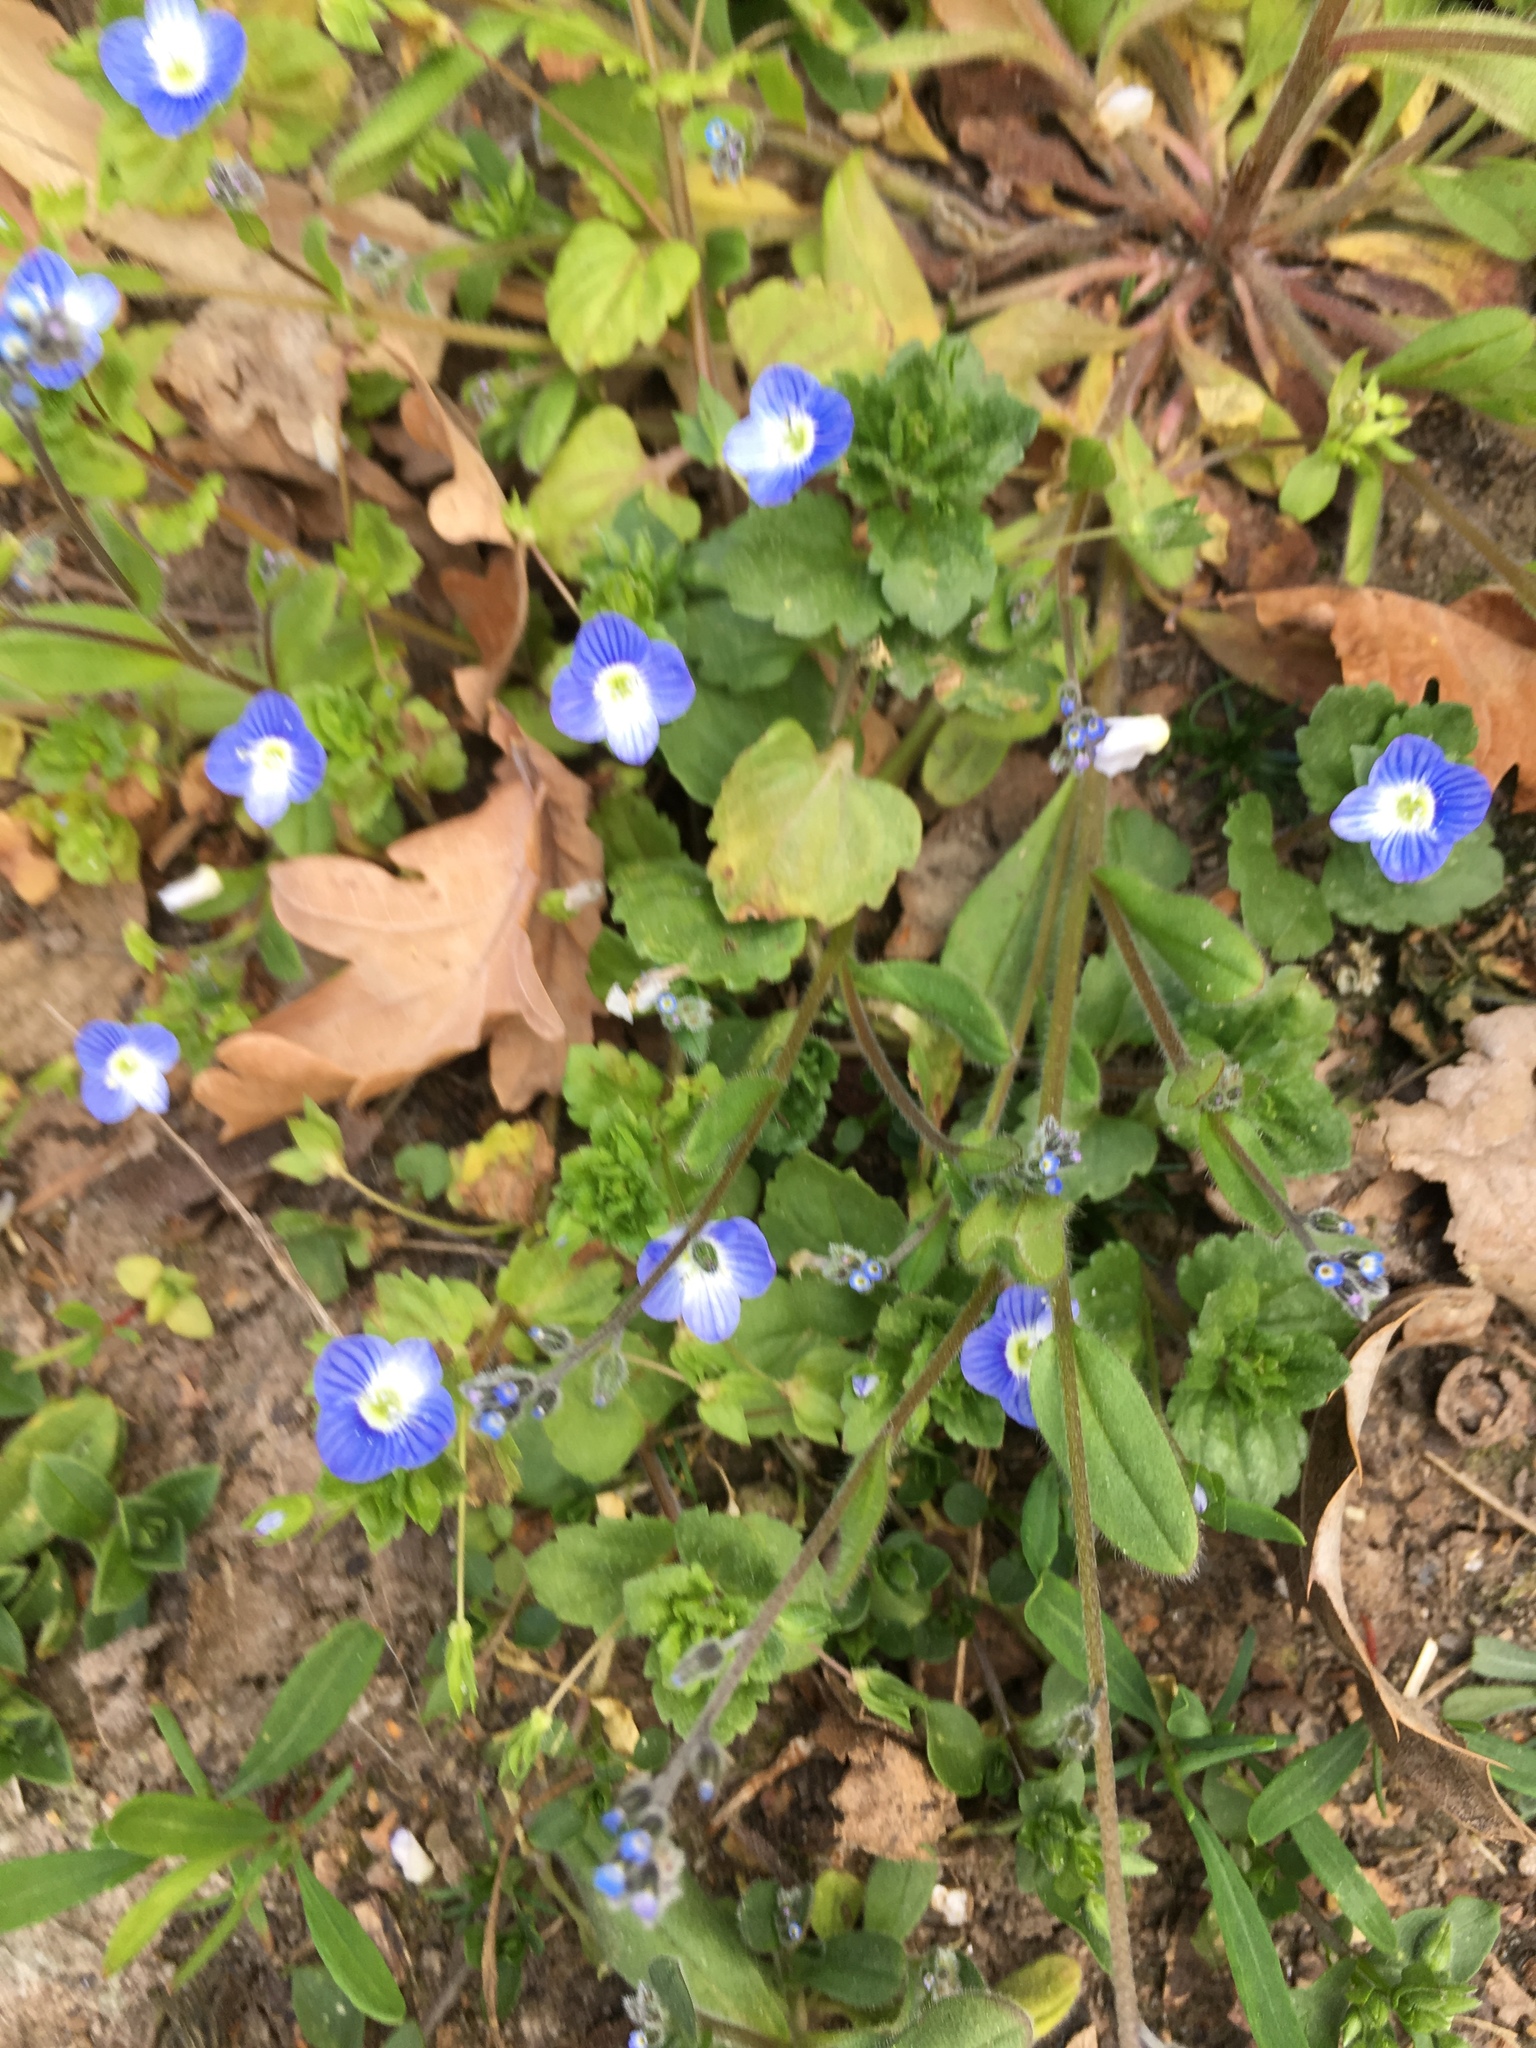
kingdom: Plantae
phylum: Tracheophyta
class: Magnoliopsida
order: Lamiales
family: Plantaginaceae
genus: Veronica
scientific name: Veronica persica
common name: Common field-speedwell
